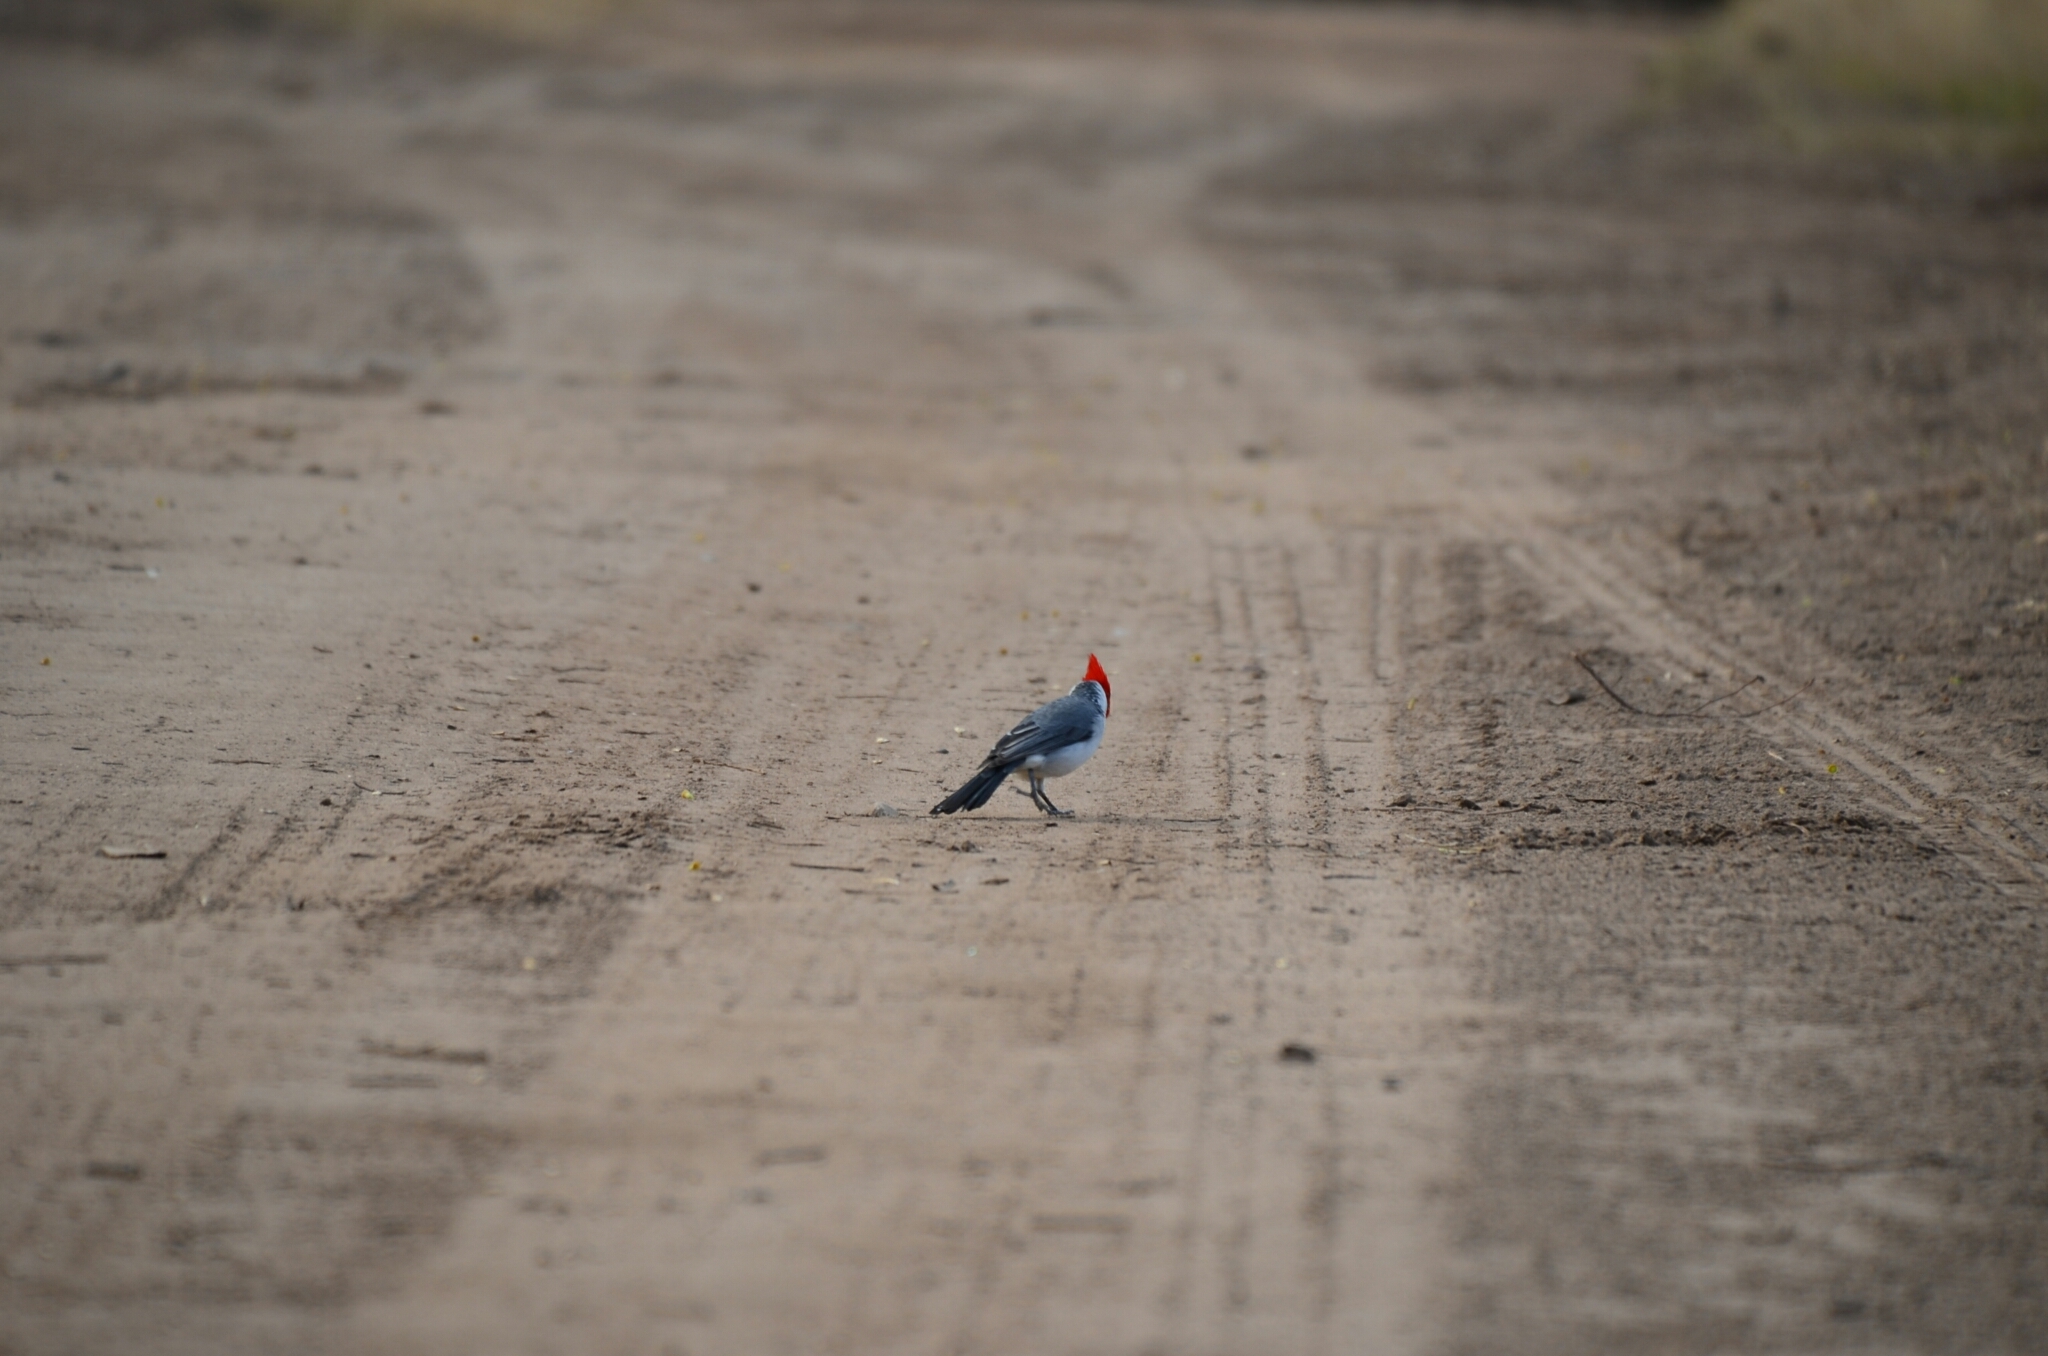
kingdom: Animalia
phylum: Chordata
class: Aves
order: Passeriformes
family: Thraupidae
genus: Paroaria
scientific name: Paroaria coronata
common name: Red-crested cardinal
